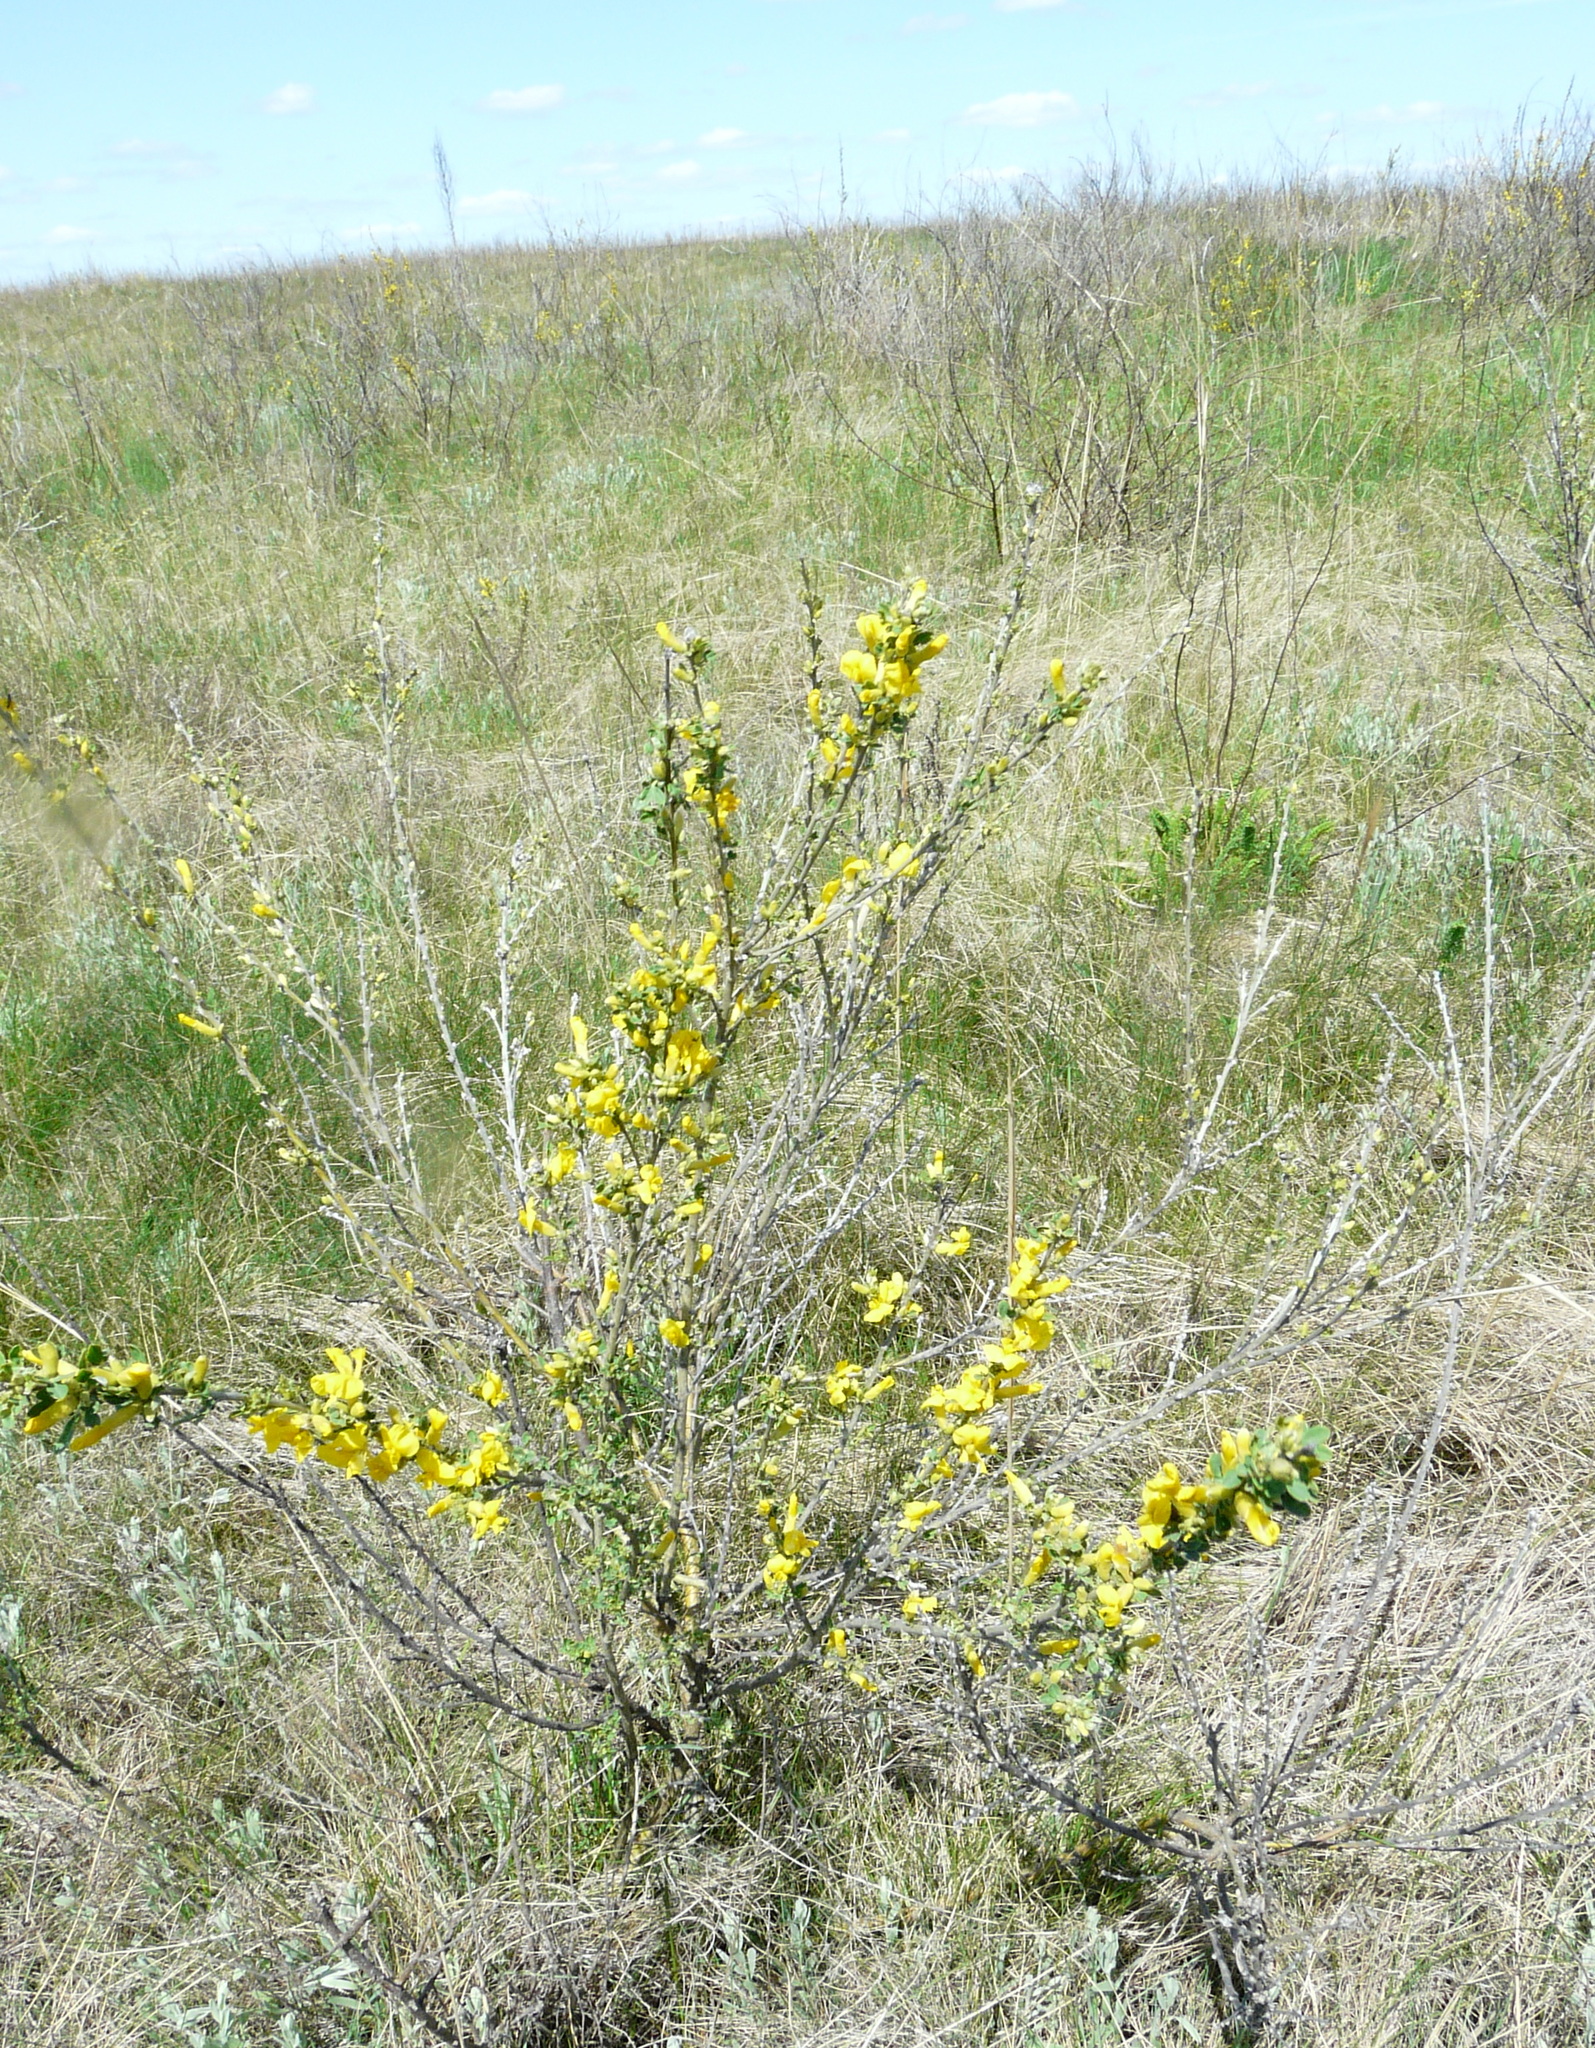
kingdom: Plantae
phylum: Tracheophyta
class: Magnoliopsida
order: Fabales
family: Fabaceae
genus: Chamaecytisus
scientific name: Chamaecytisus ruthenicus
